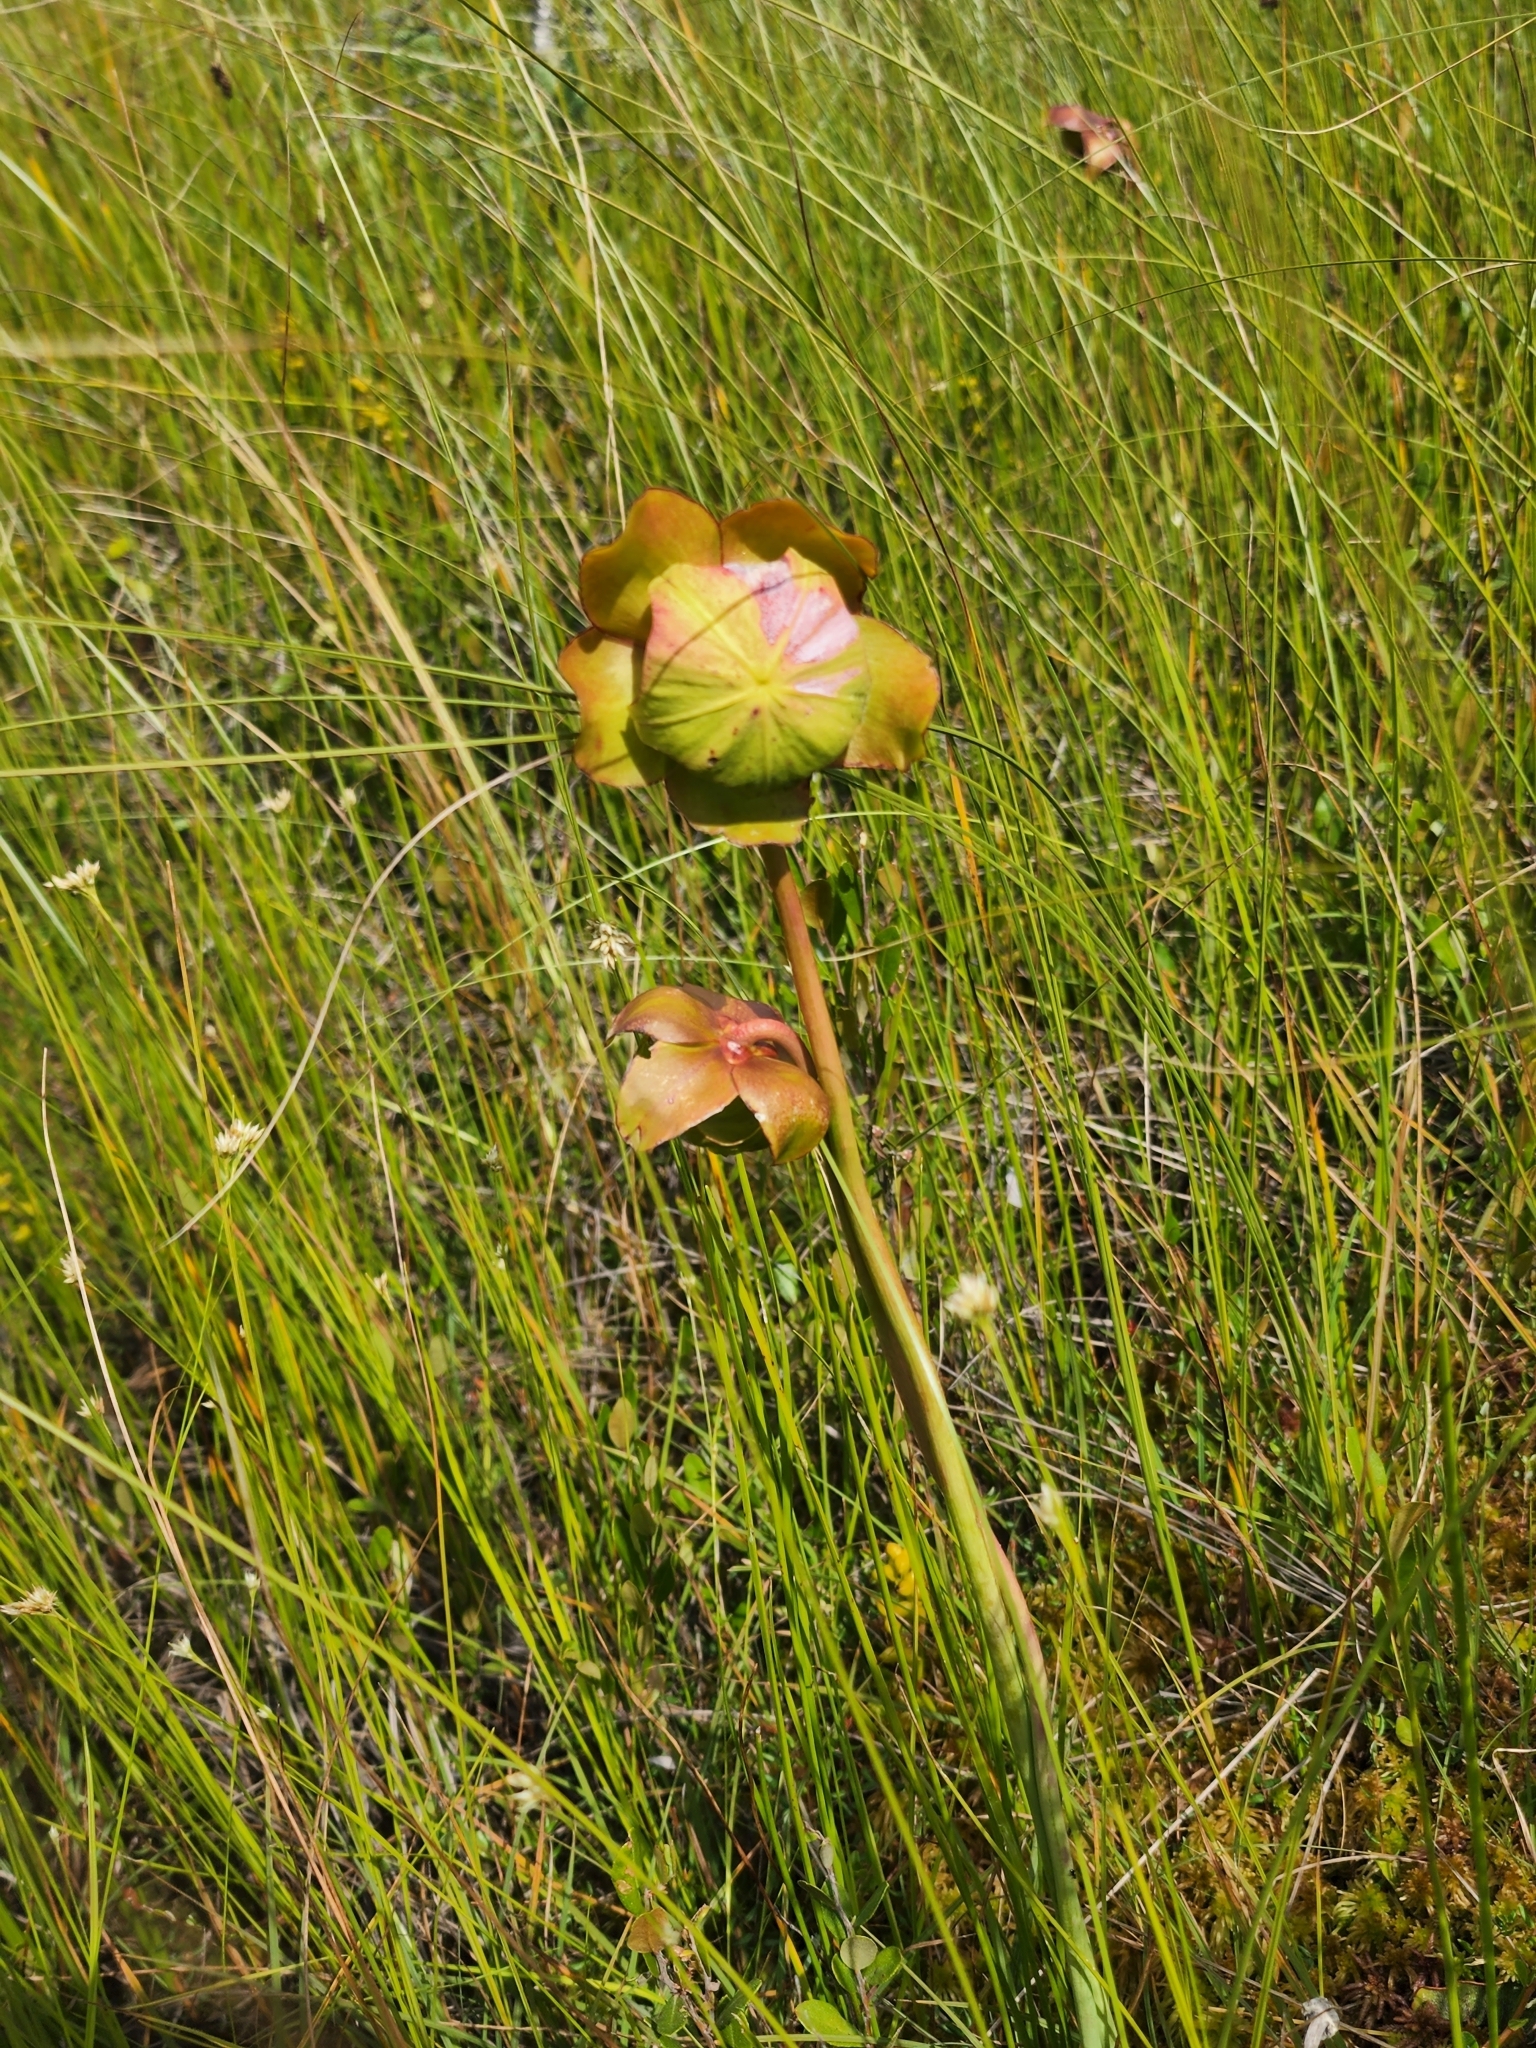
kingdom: Plantae
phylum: Tracheophyta
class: Magnoliopsida
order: Ericales
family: Sarraceniaceae
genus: Sarracenia
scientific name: Sarracenia purpurea
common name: Pitcherplant
